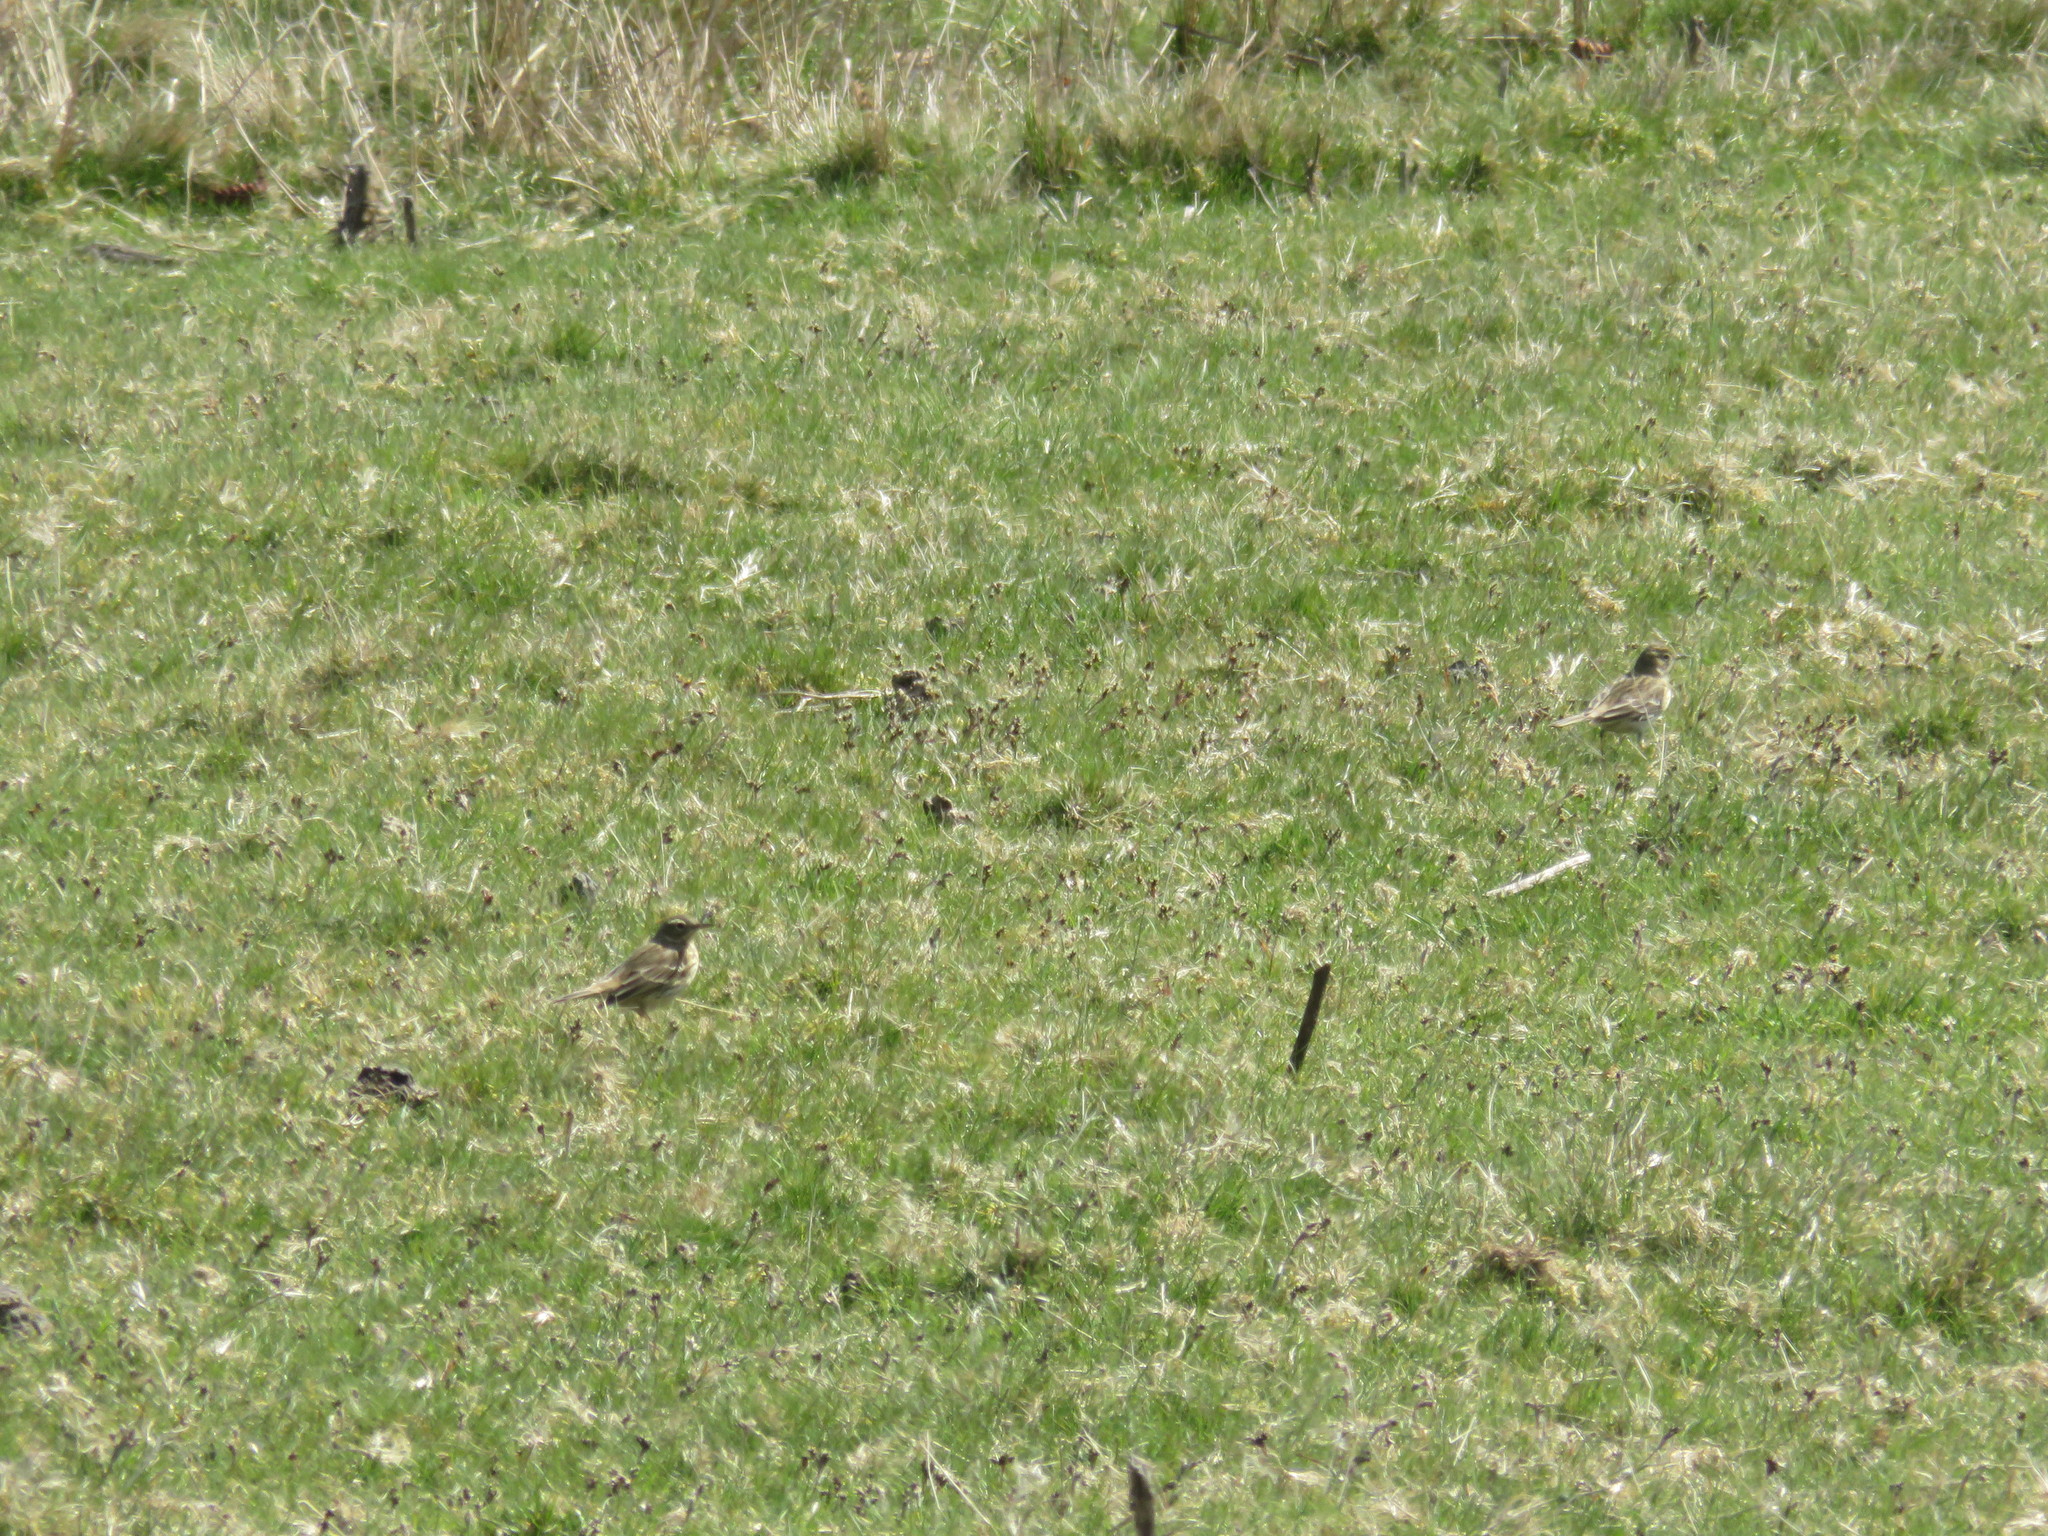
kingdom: Animalia
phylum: Chordata
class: Aves
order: Passeriformes
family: Motacillidae
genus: Anthus
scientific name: Anthus pratensis
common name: Meadow pipit
